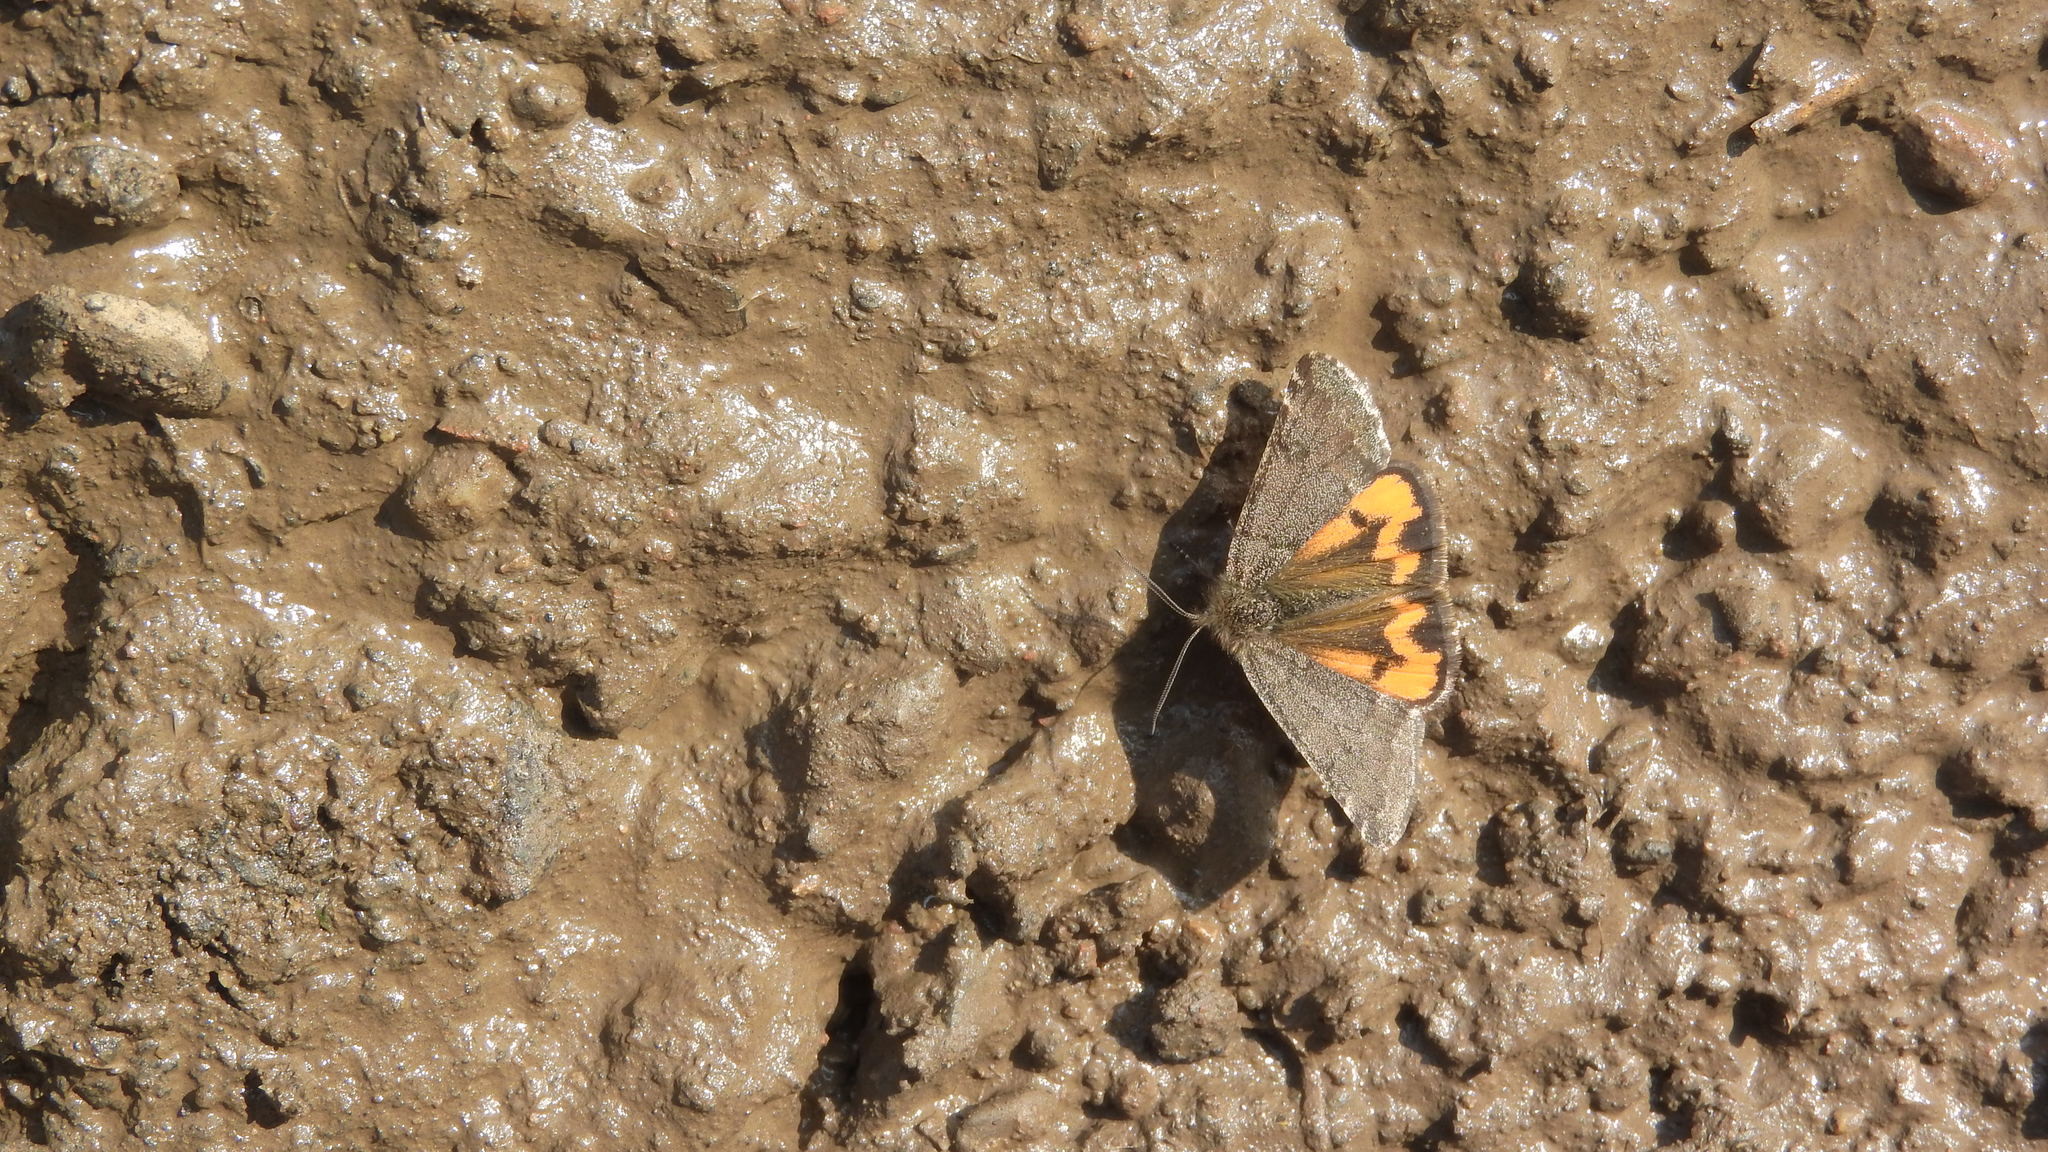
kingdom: Animalia
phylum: Arthropoda
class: Insecta
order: Lepidoptera
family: Geometridae
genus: Archiearis
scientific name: Archiearis notha
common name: Light orange underwing
